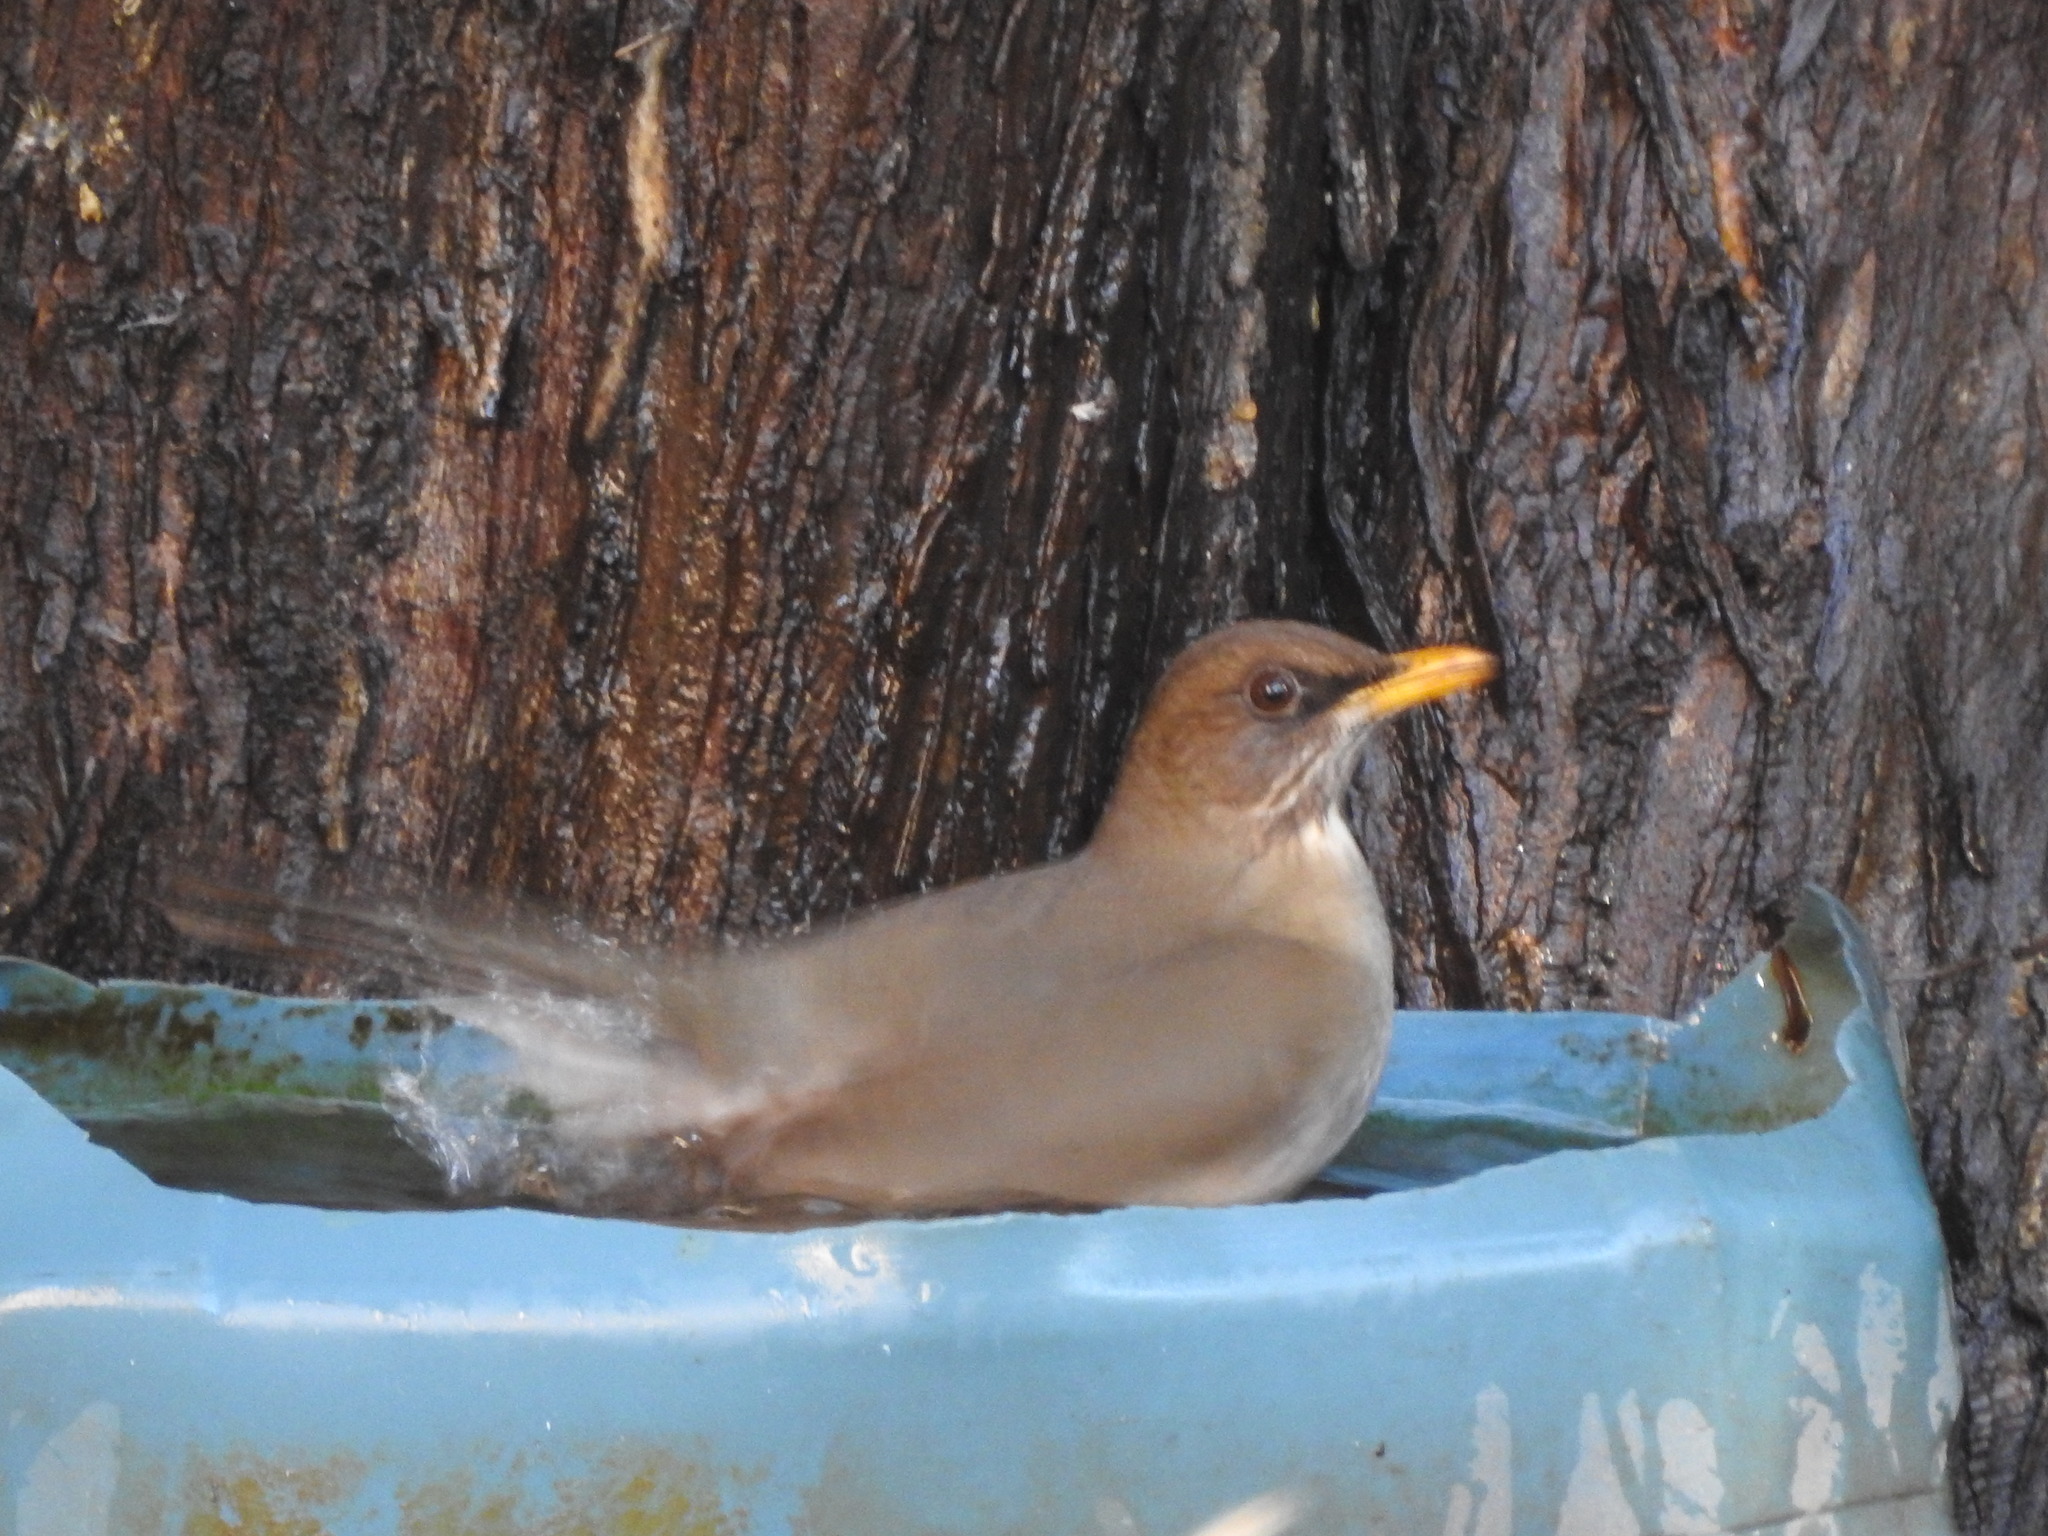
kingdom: Animalia
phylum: Chordata
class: Aves
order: Passeriformes
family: Turdidae
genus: Turdus
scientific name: Turdus amaurochalinus
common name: Creamy-bellied thrush
